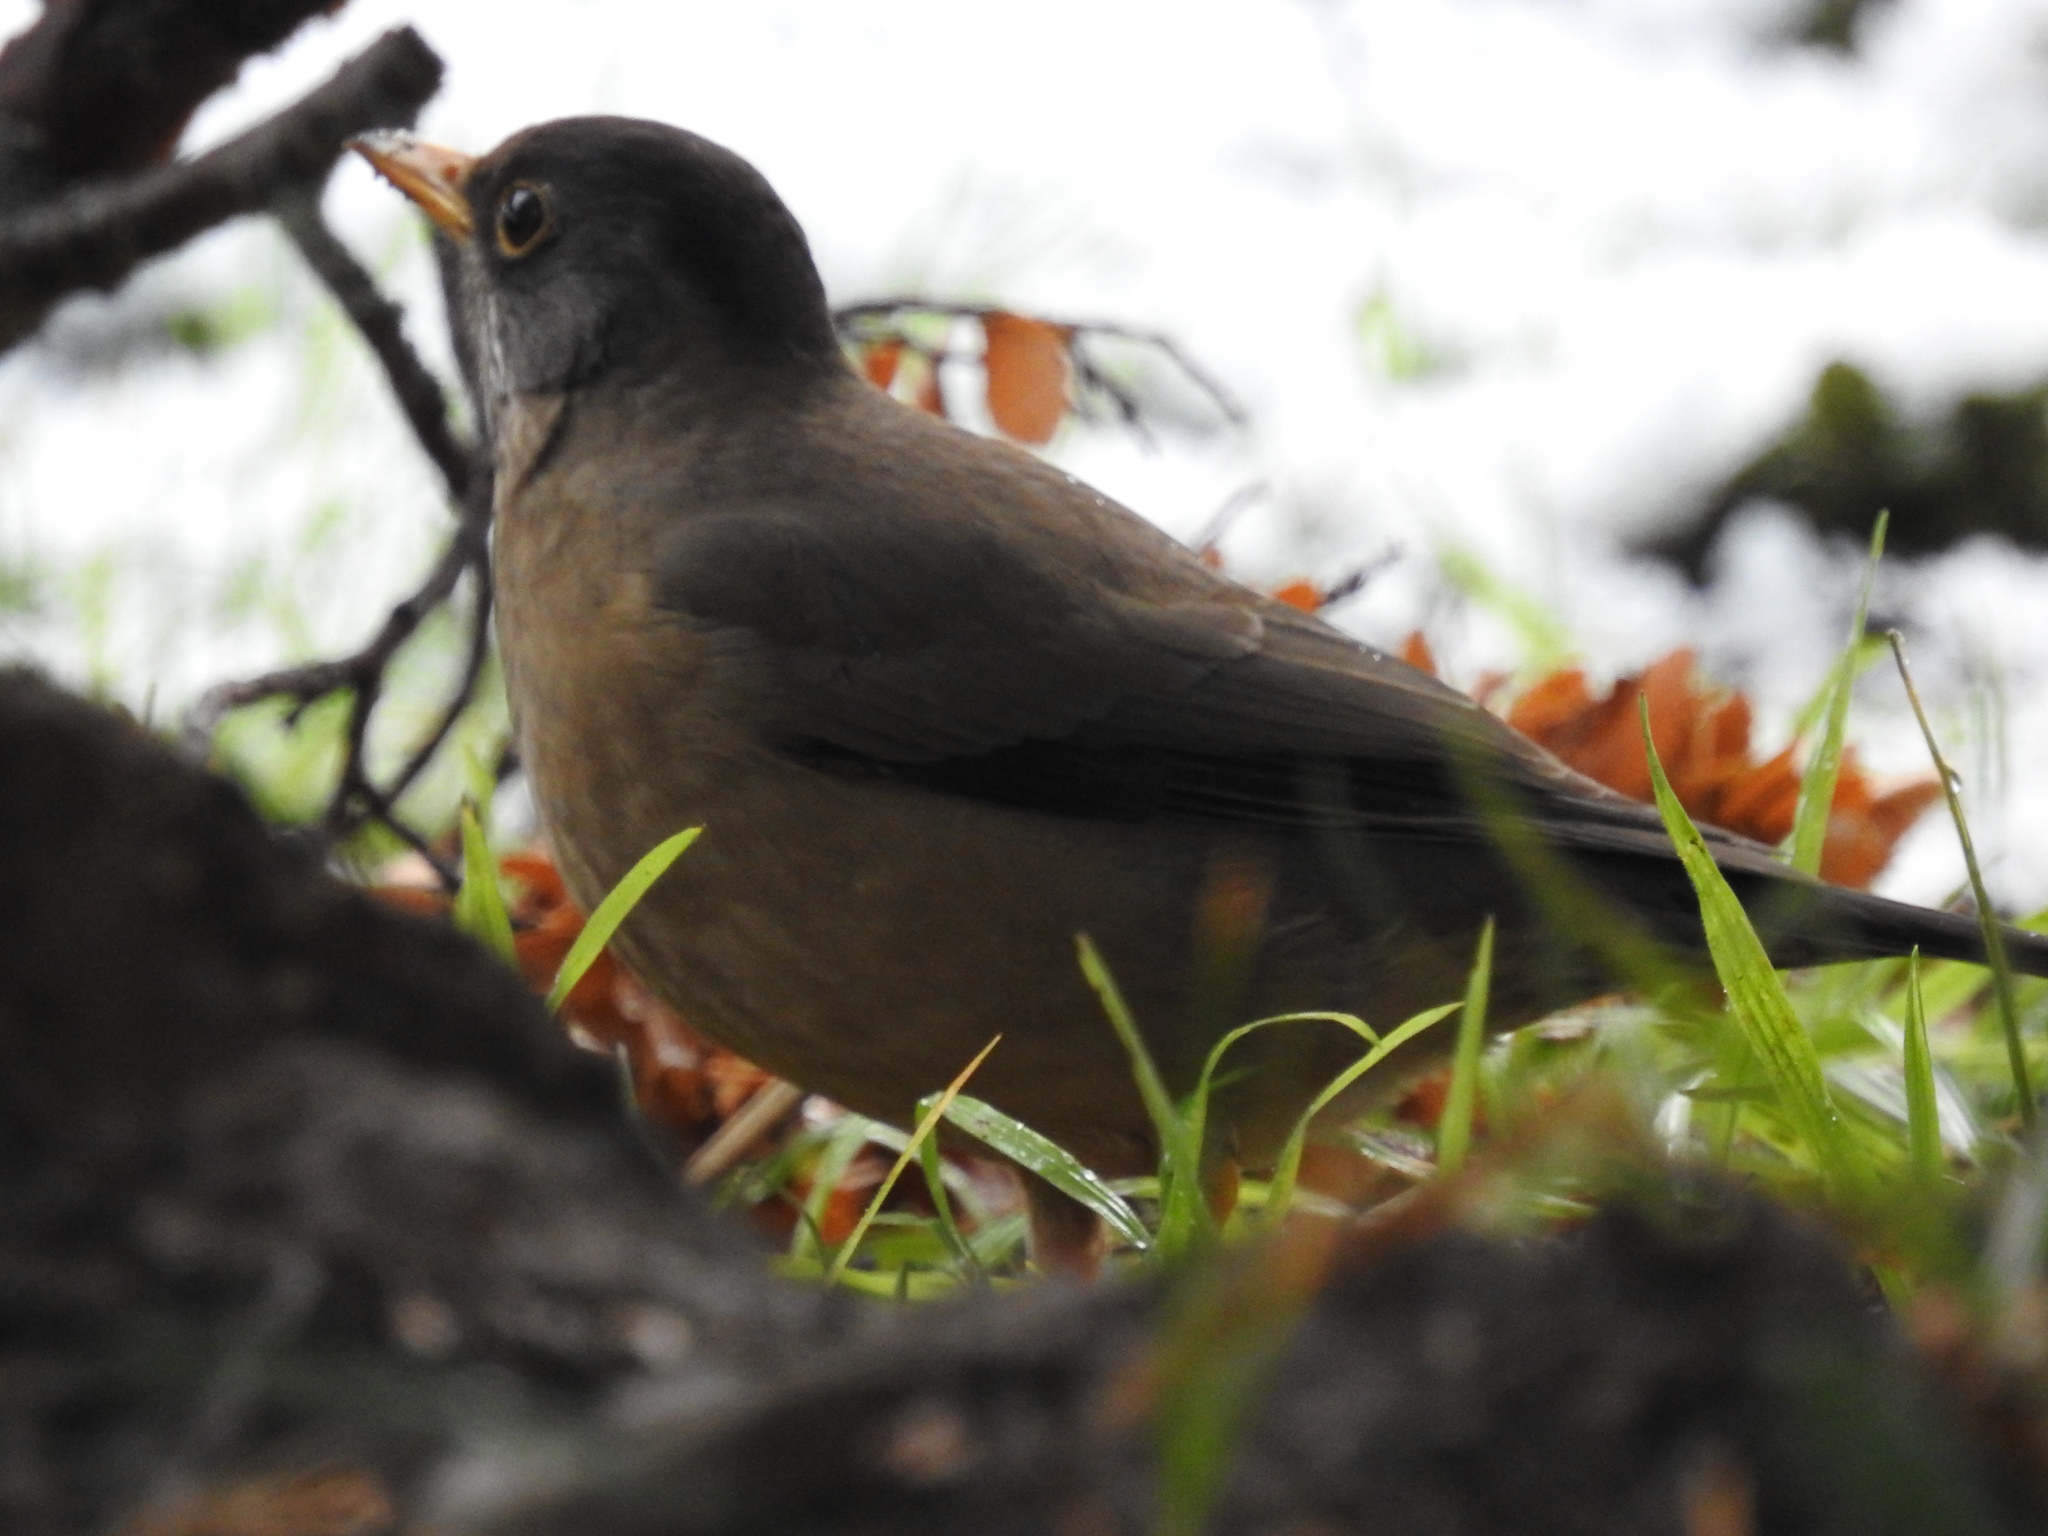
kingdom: Animalia
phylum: Chordata
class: Aves
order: Passeriformes
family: Turdidae
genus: Turdus
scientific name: Turdus falcklandii
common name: Austral thrush
